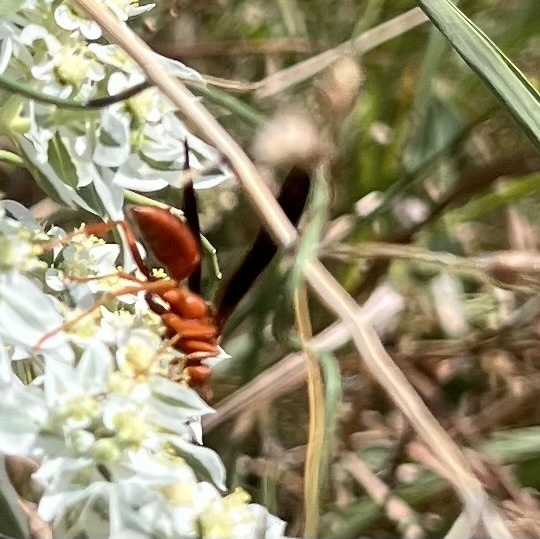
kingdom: Animalia
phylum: Arthropoda
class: Insecta
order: Hymenoptera
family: Eumenidae
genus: Polistes
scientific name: Polistes carolina
